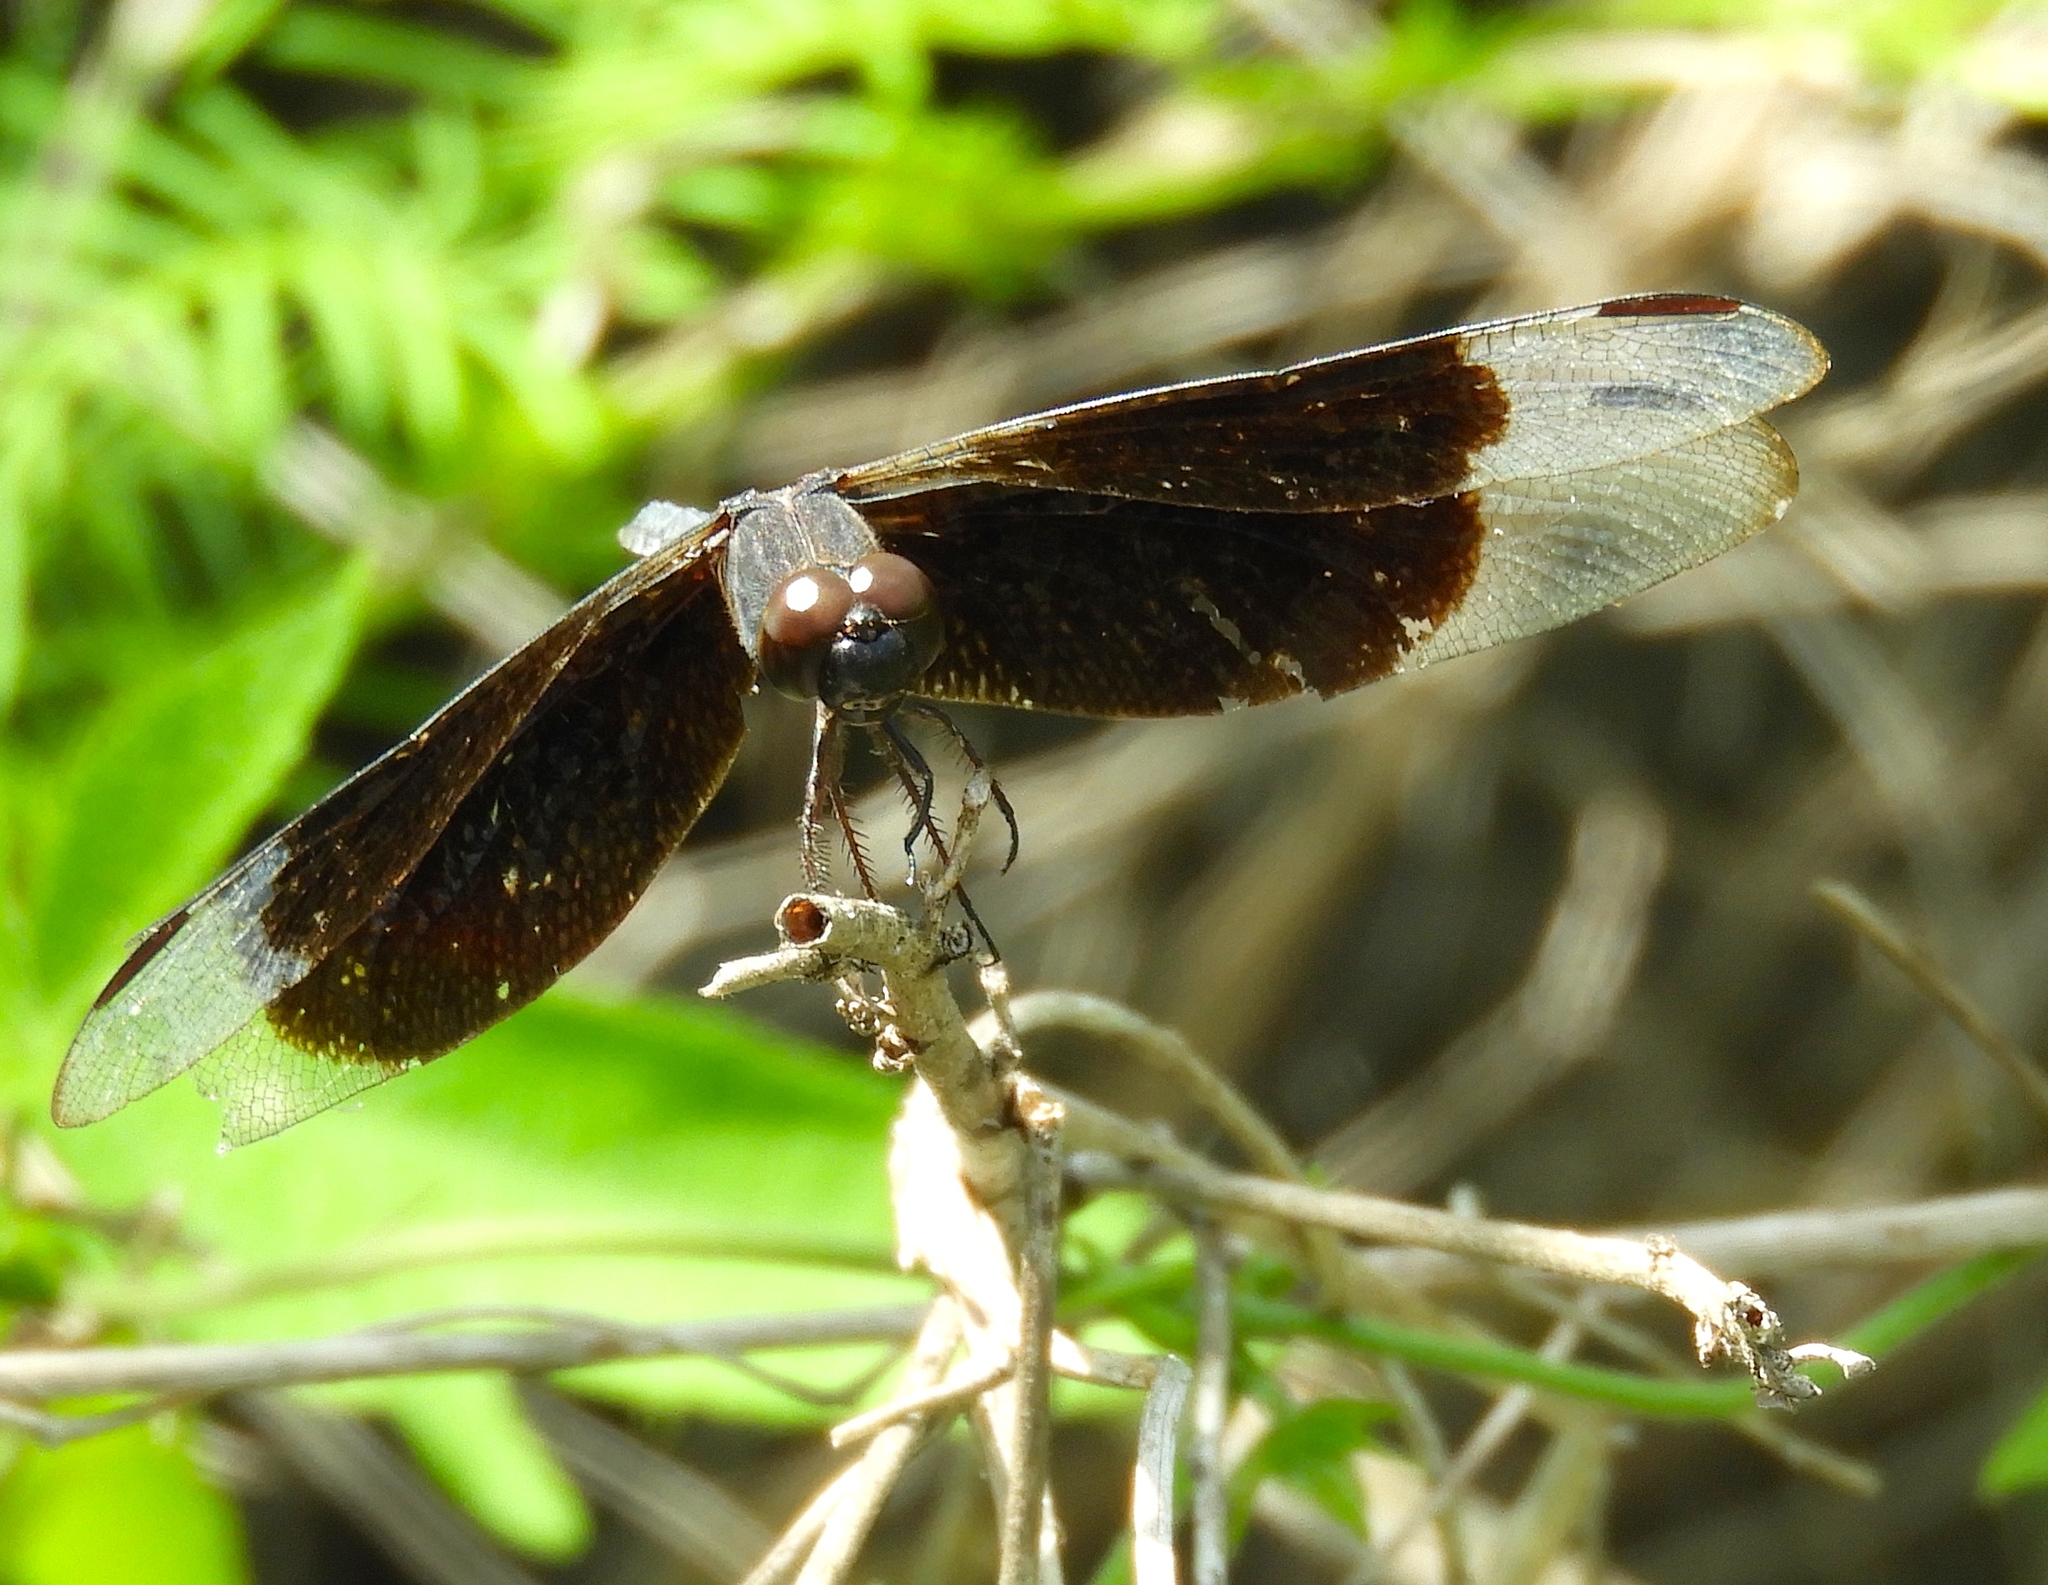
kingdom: Animalia
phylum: Arthropoda
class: Insecta
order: Odonata
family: Libellulidae
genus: Erythrodiplax
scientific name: Erythrodiplax funerea
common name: Black-winged dragonlet
